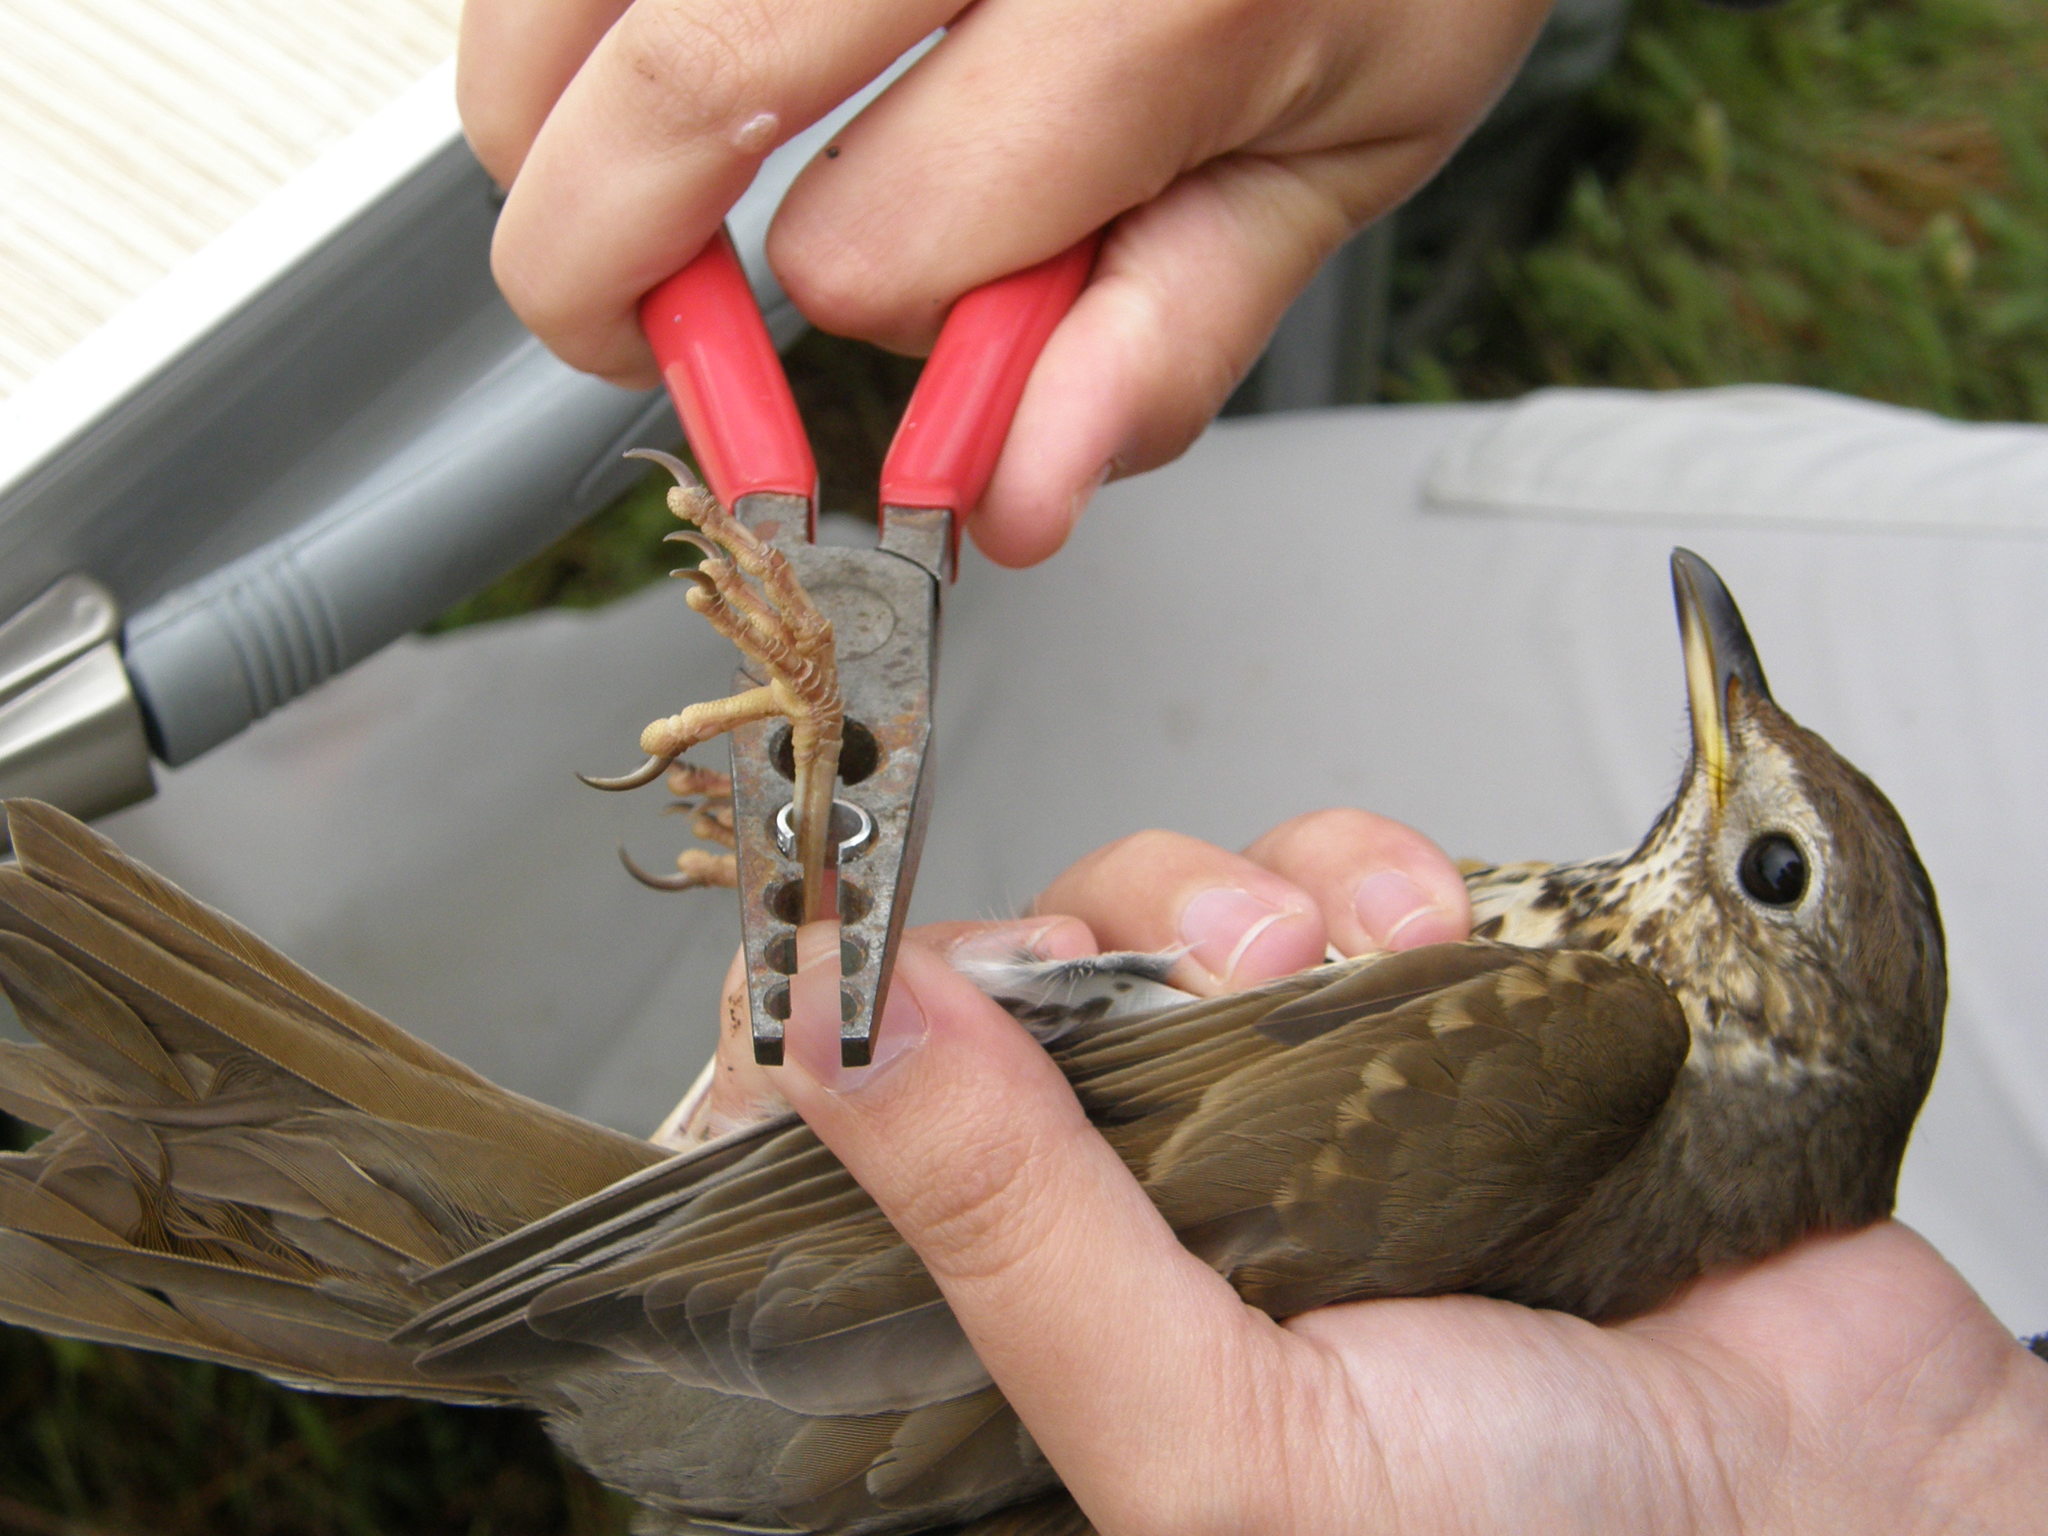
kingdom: Animalia
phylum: Chordata
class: Aves
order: Passeriformes
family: Turdidae
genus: Turdus
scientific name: Turdus philomelos
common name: Song thrush
